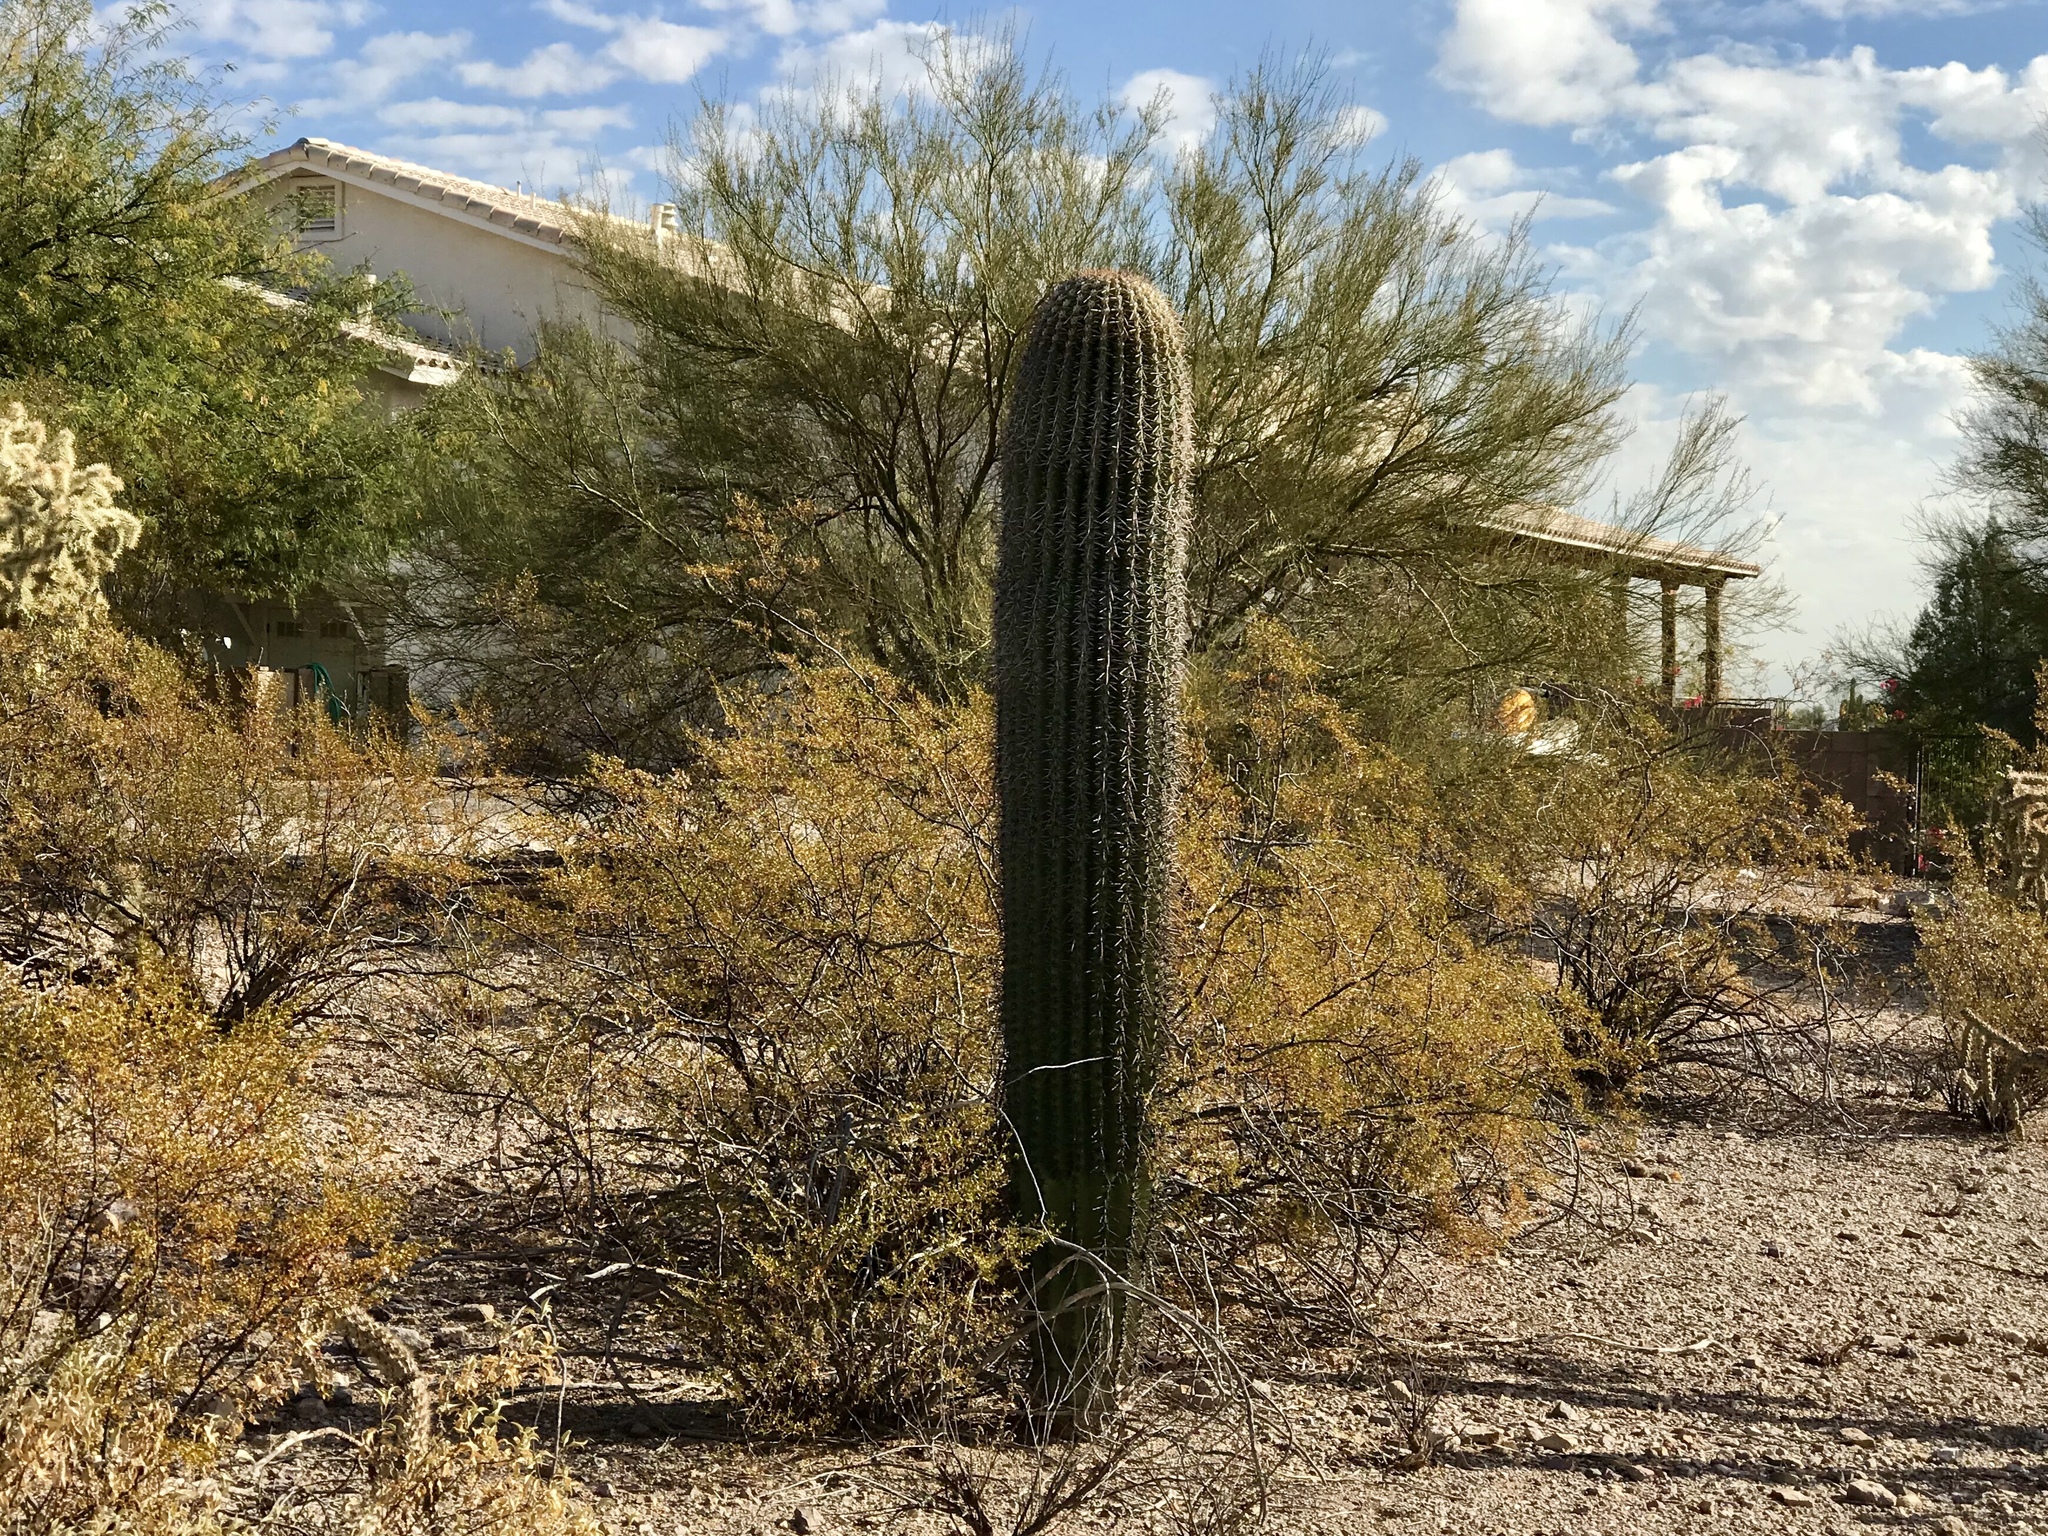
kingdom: Plantae
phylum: Tracheophyta
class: Magnoliopsida
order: Caryophyllales
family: Cactaceae
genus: Carnegiea
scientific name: Carnegiea gigantea
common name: Saguaro
